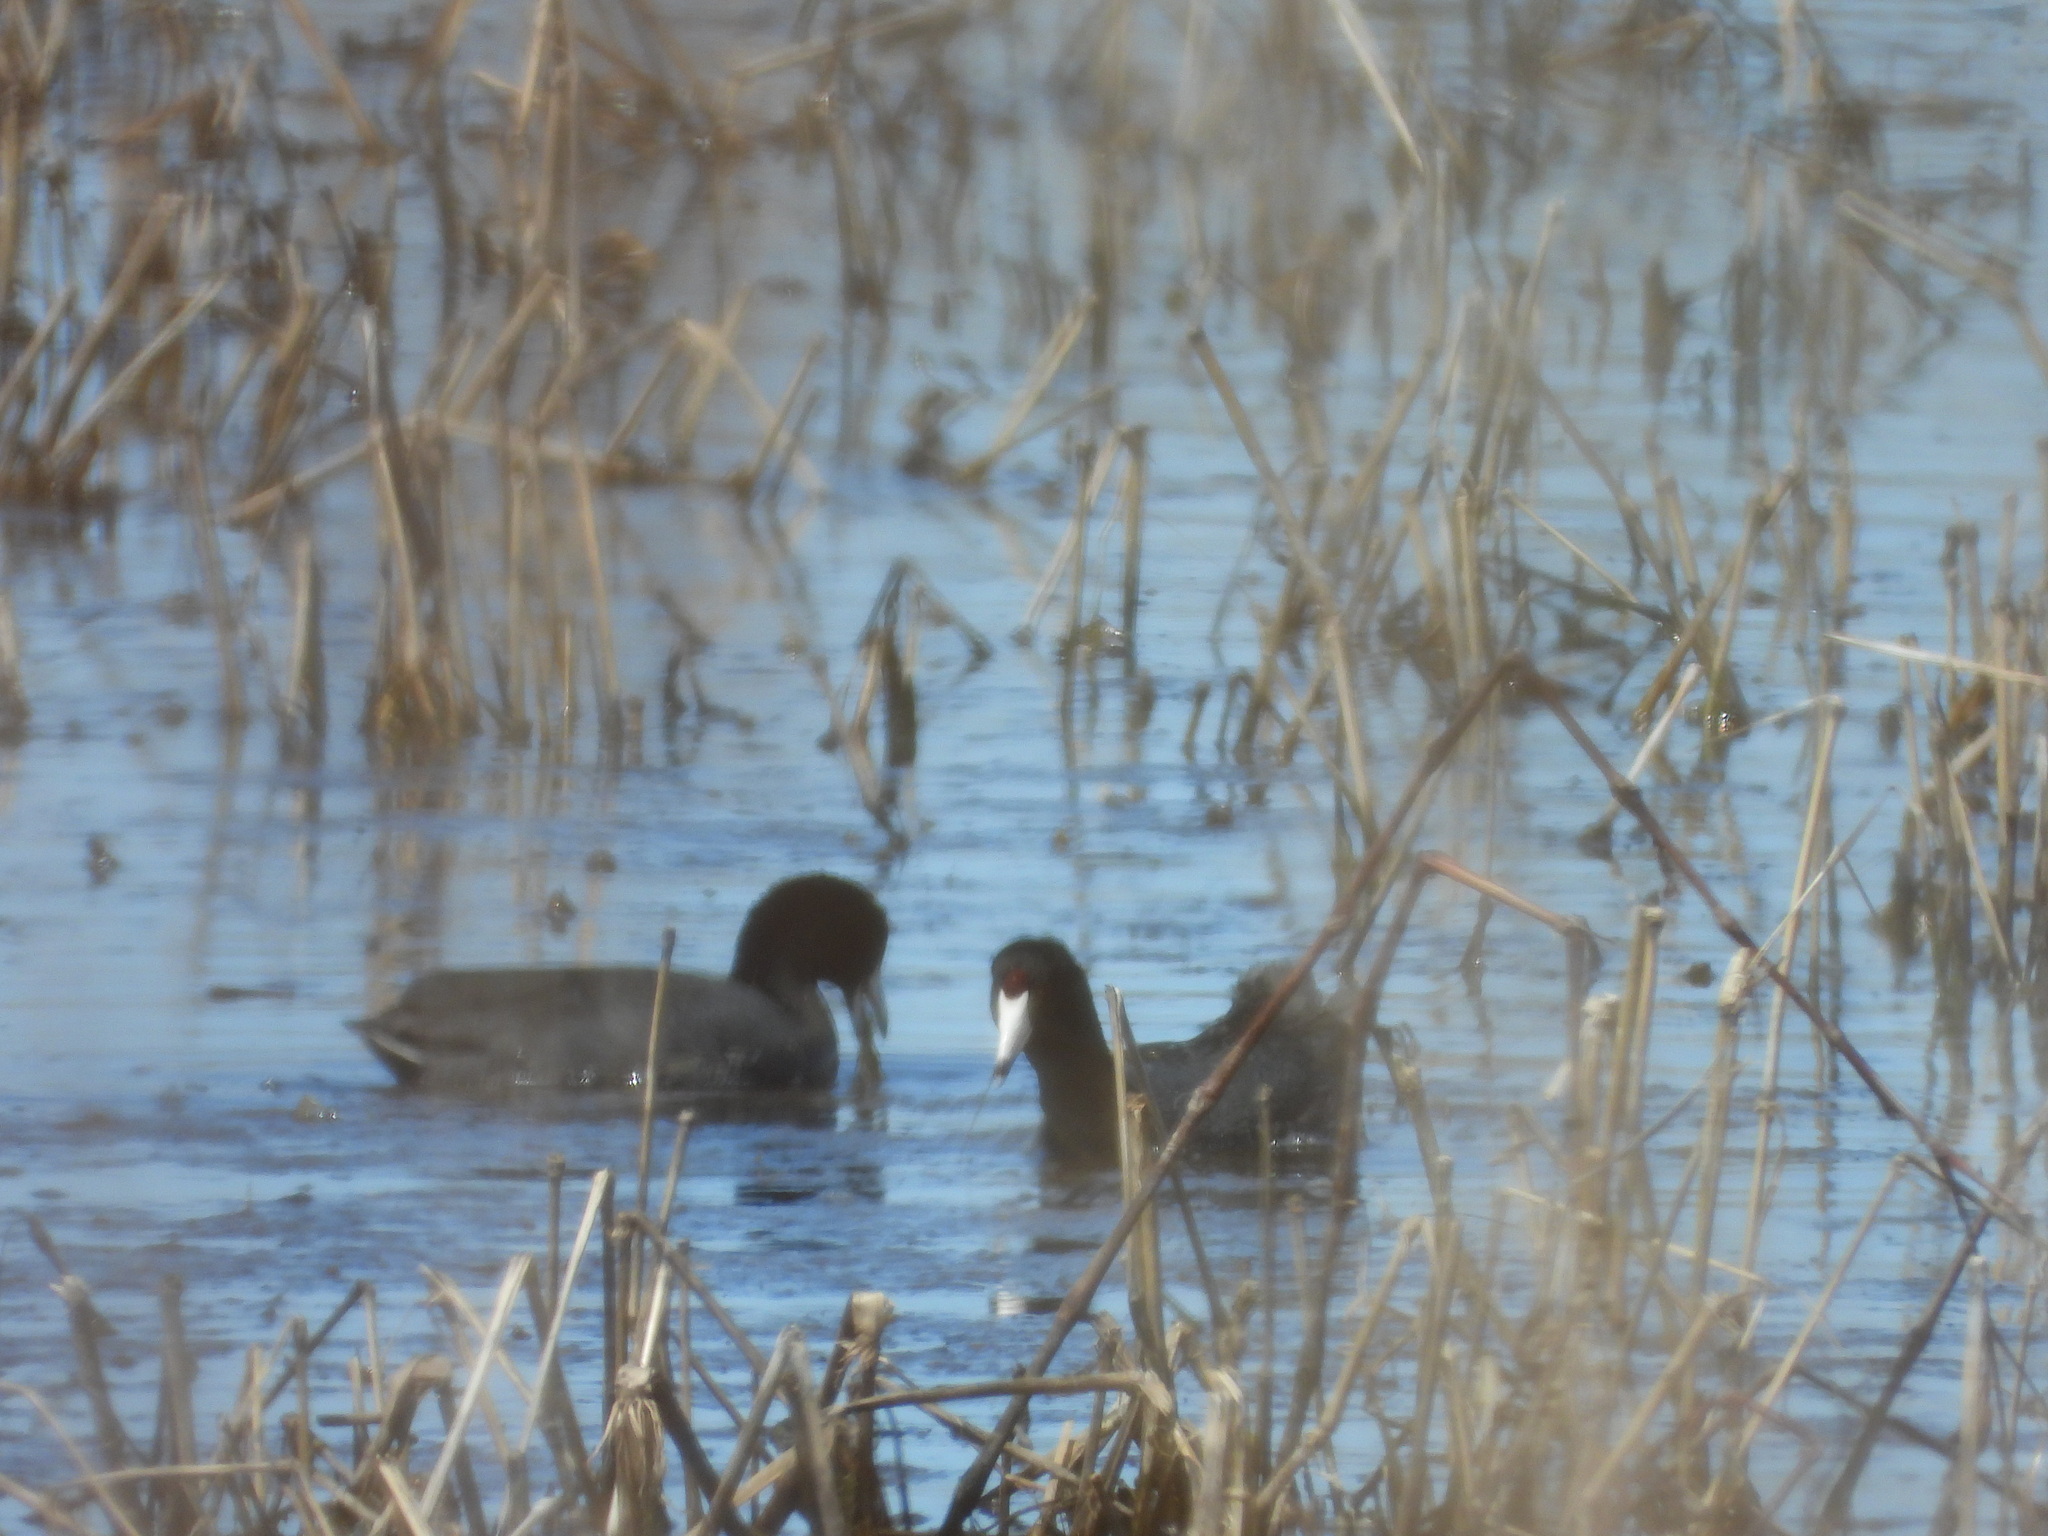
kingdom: Animalia
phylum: Chordata
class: Aves
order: Gruiformes
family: Rallidae
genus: Fulica
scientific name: Fulica americana
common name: American coot
